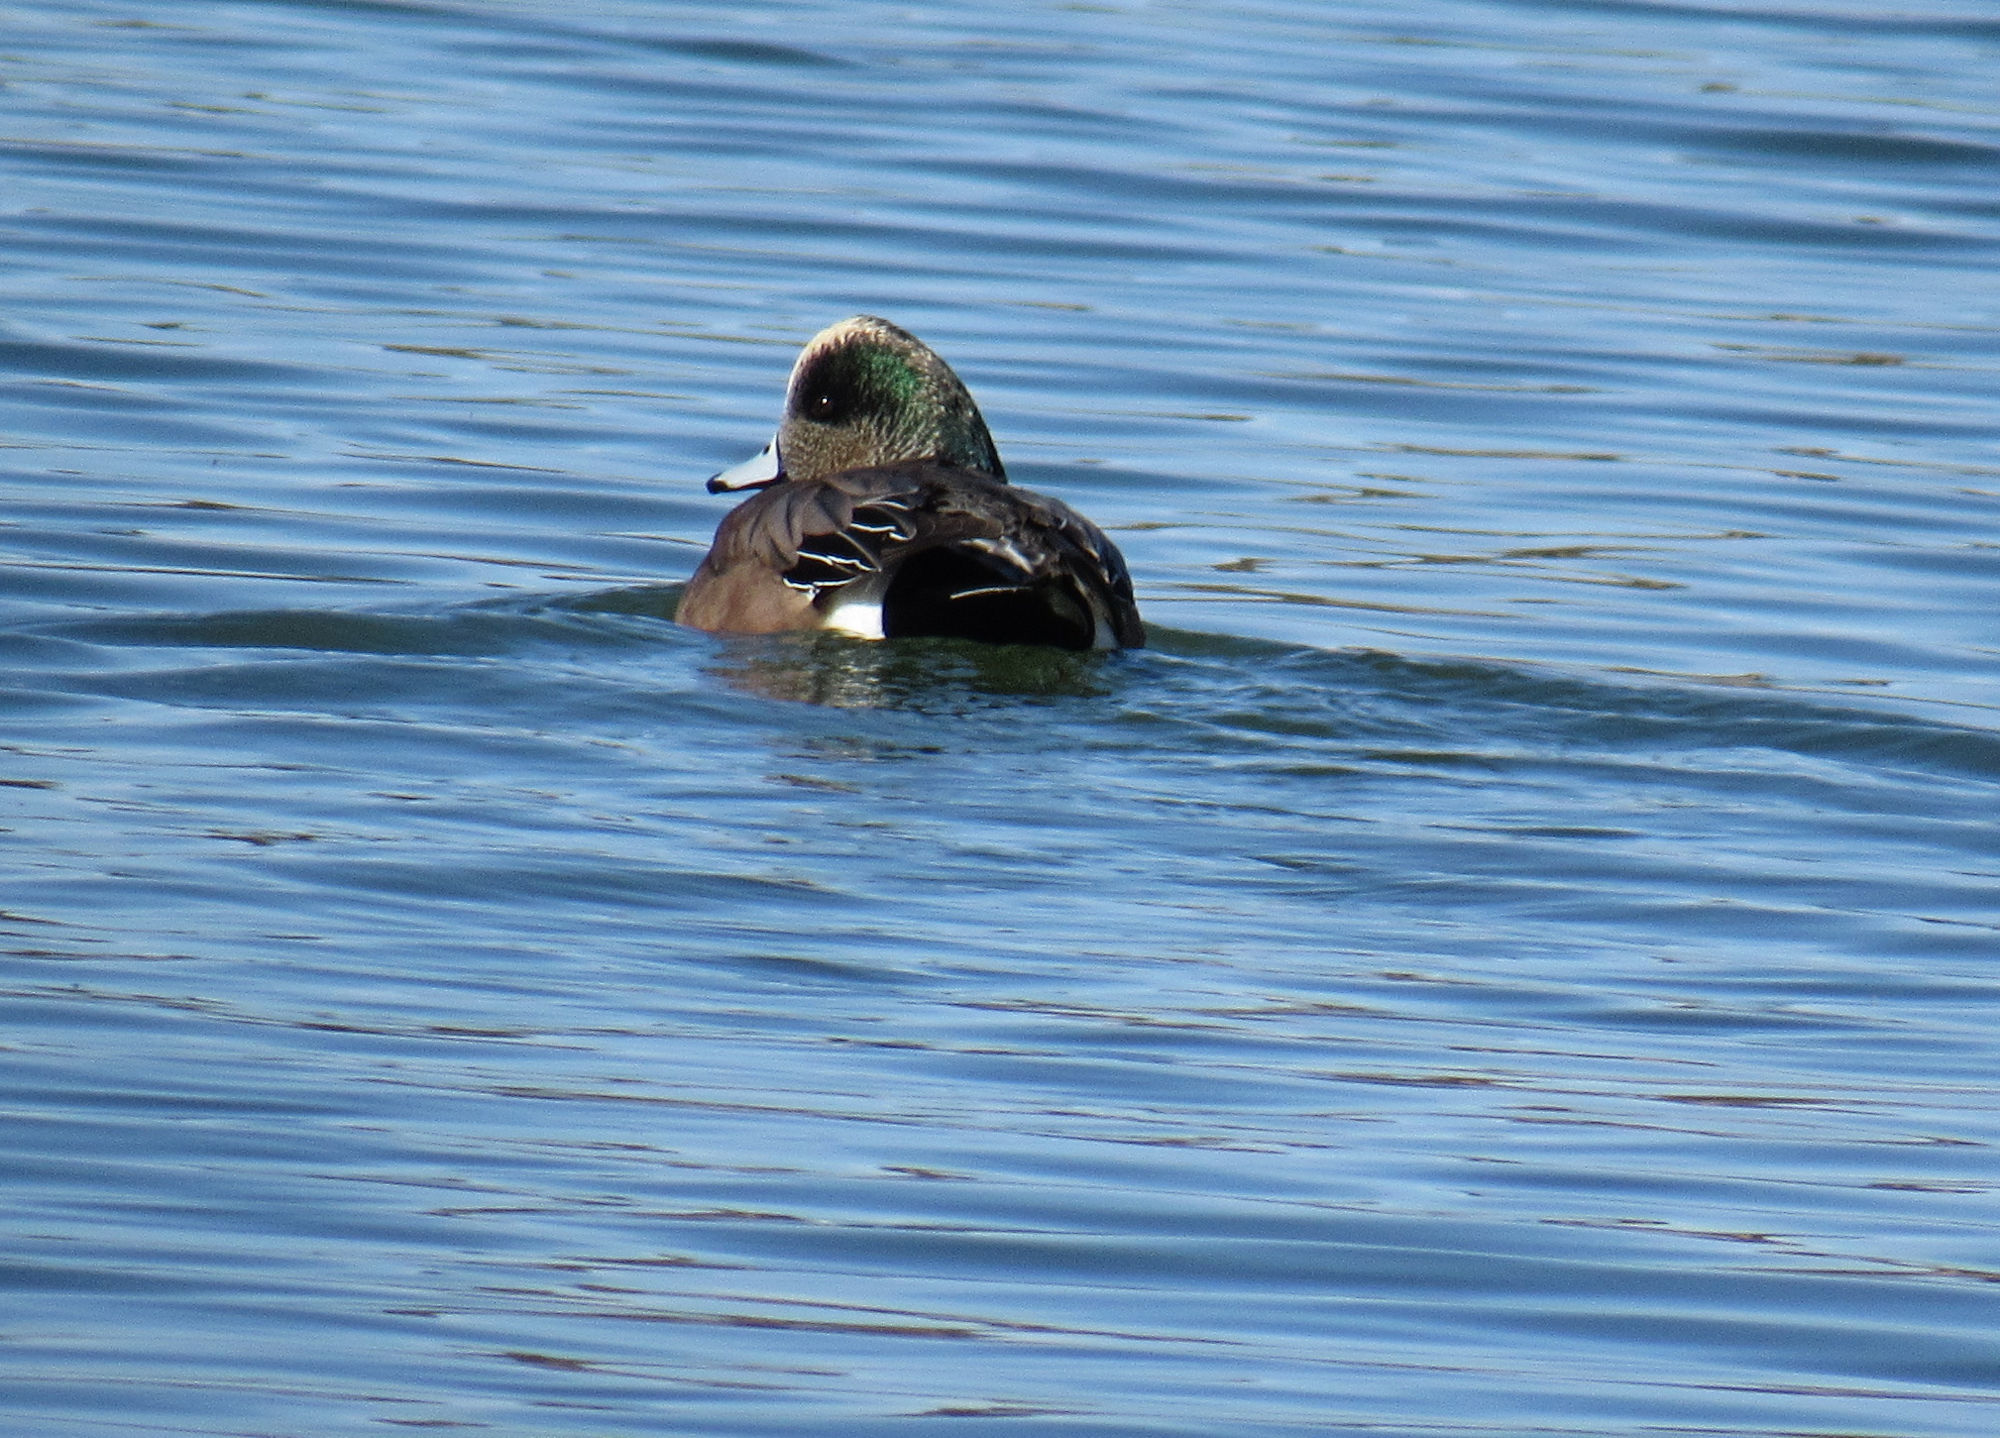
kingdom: Animalia
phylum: Chordata
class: Aves
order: Anseriformes
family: Anatidae
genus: Mareca
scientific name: Mareca americana
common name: American wigeon
